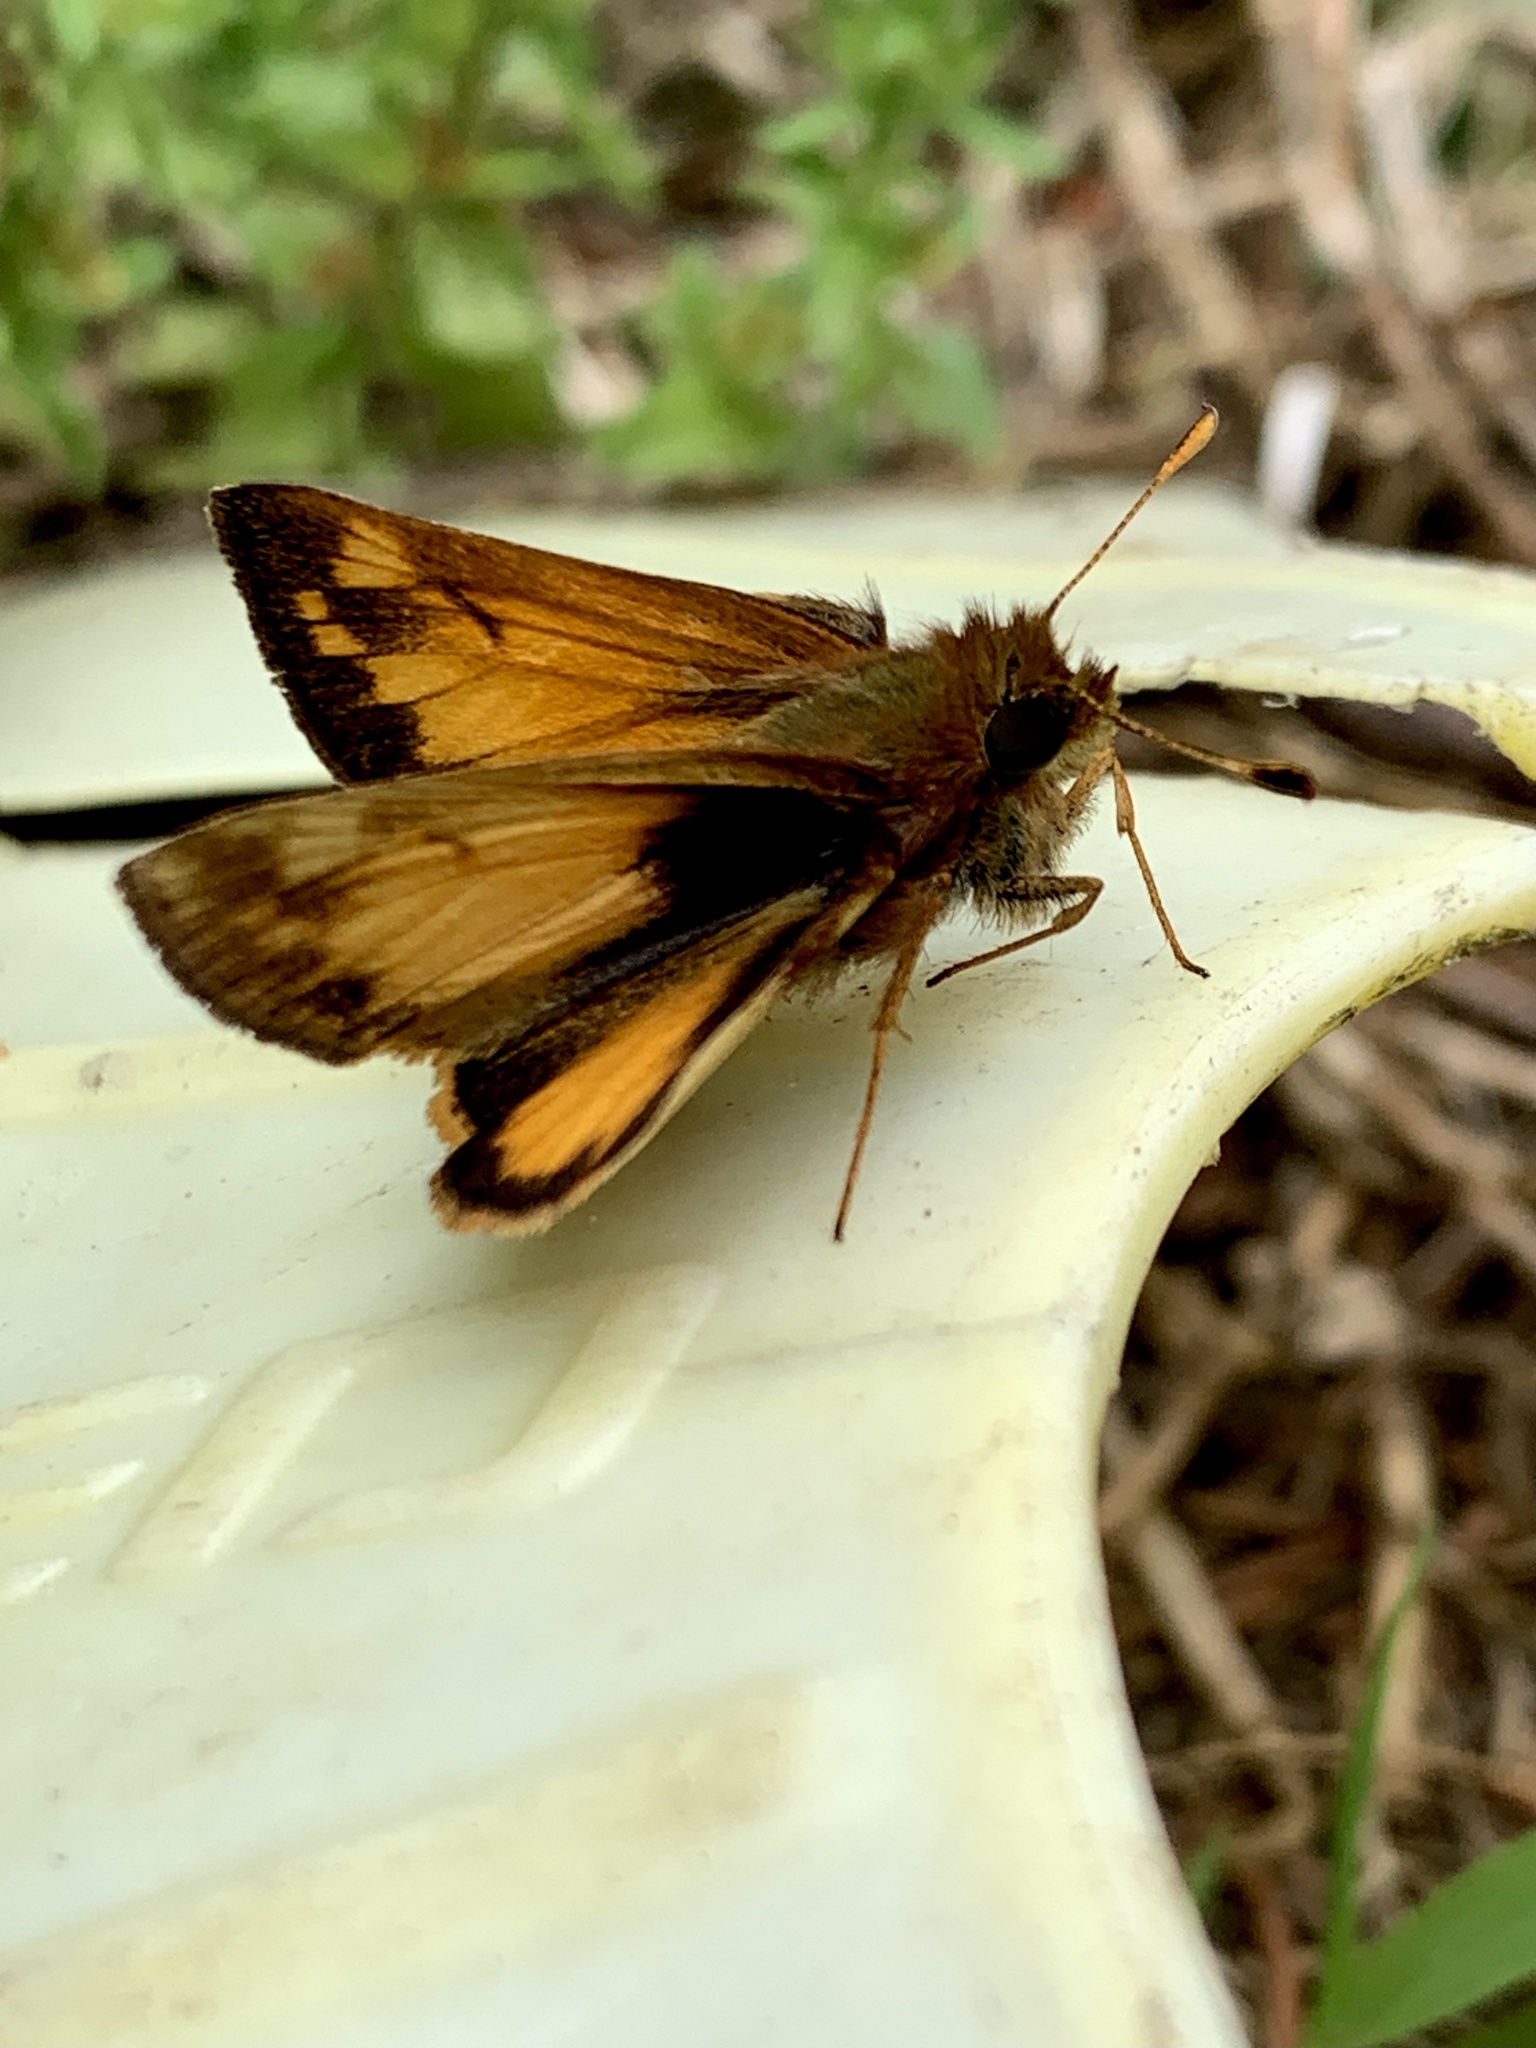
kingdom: Animalia
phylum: Arthropoda
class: Insecta
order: Lepidoptera
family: Hesperiidae
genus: Lon
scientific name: Lon zabulon
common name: Zabulon skipper
